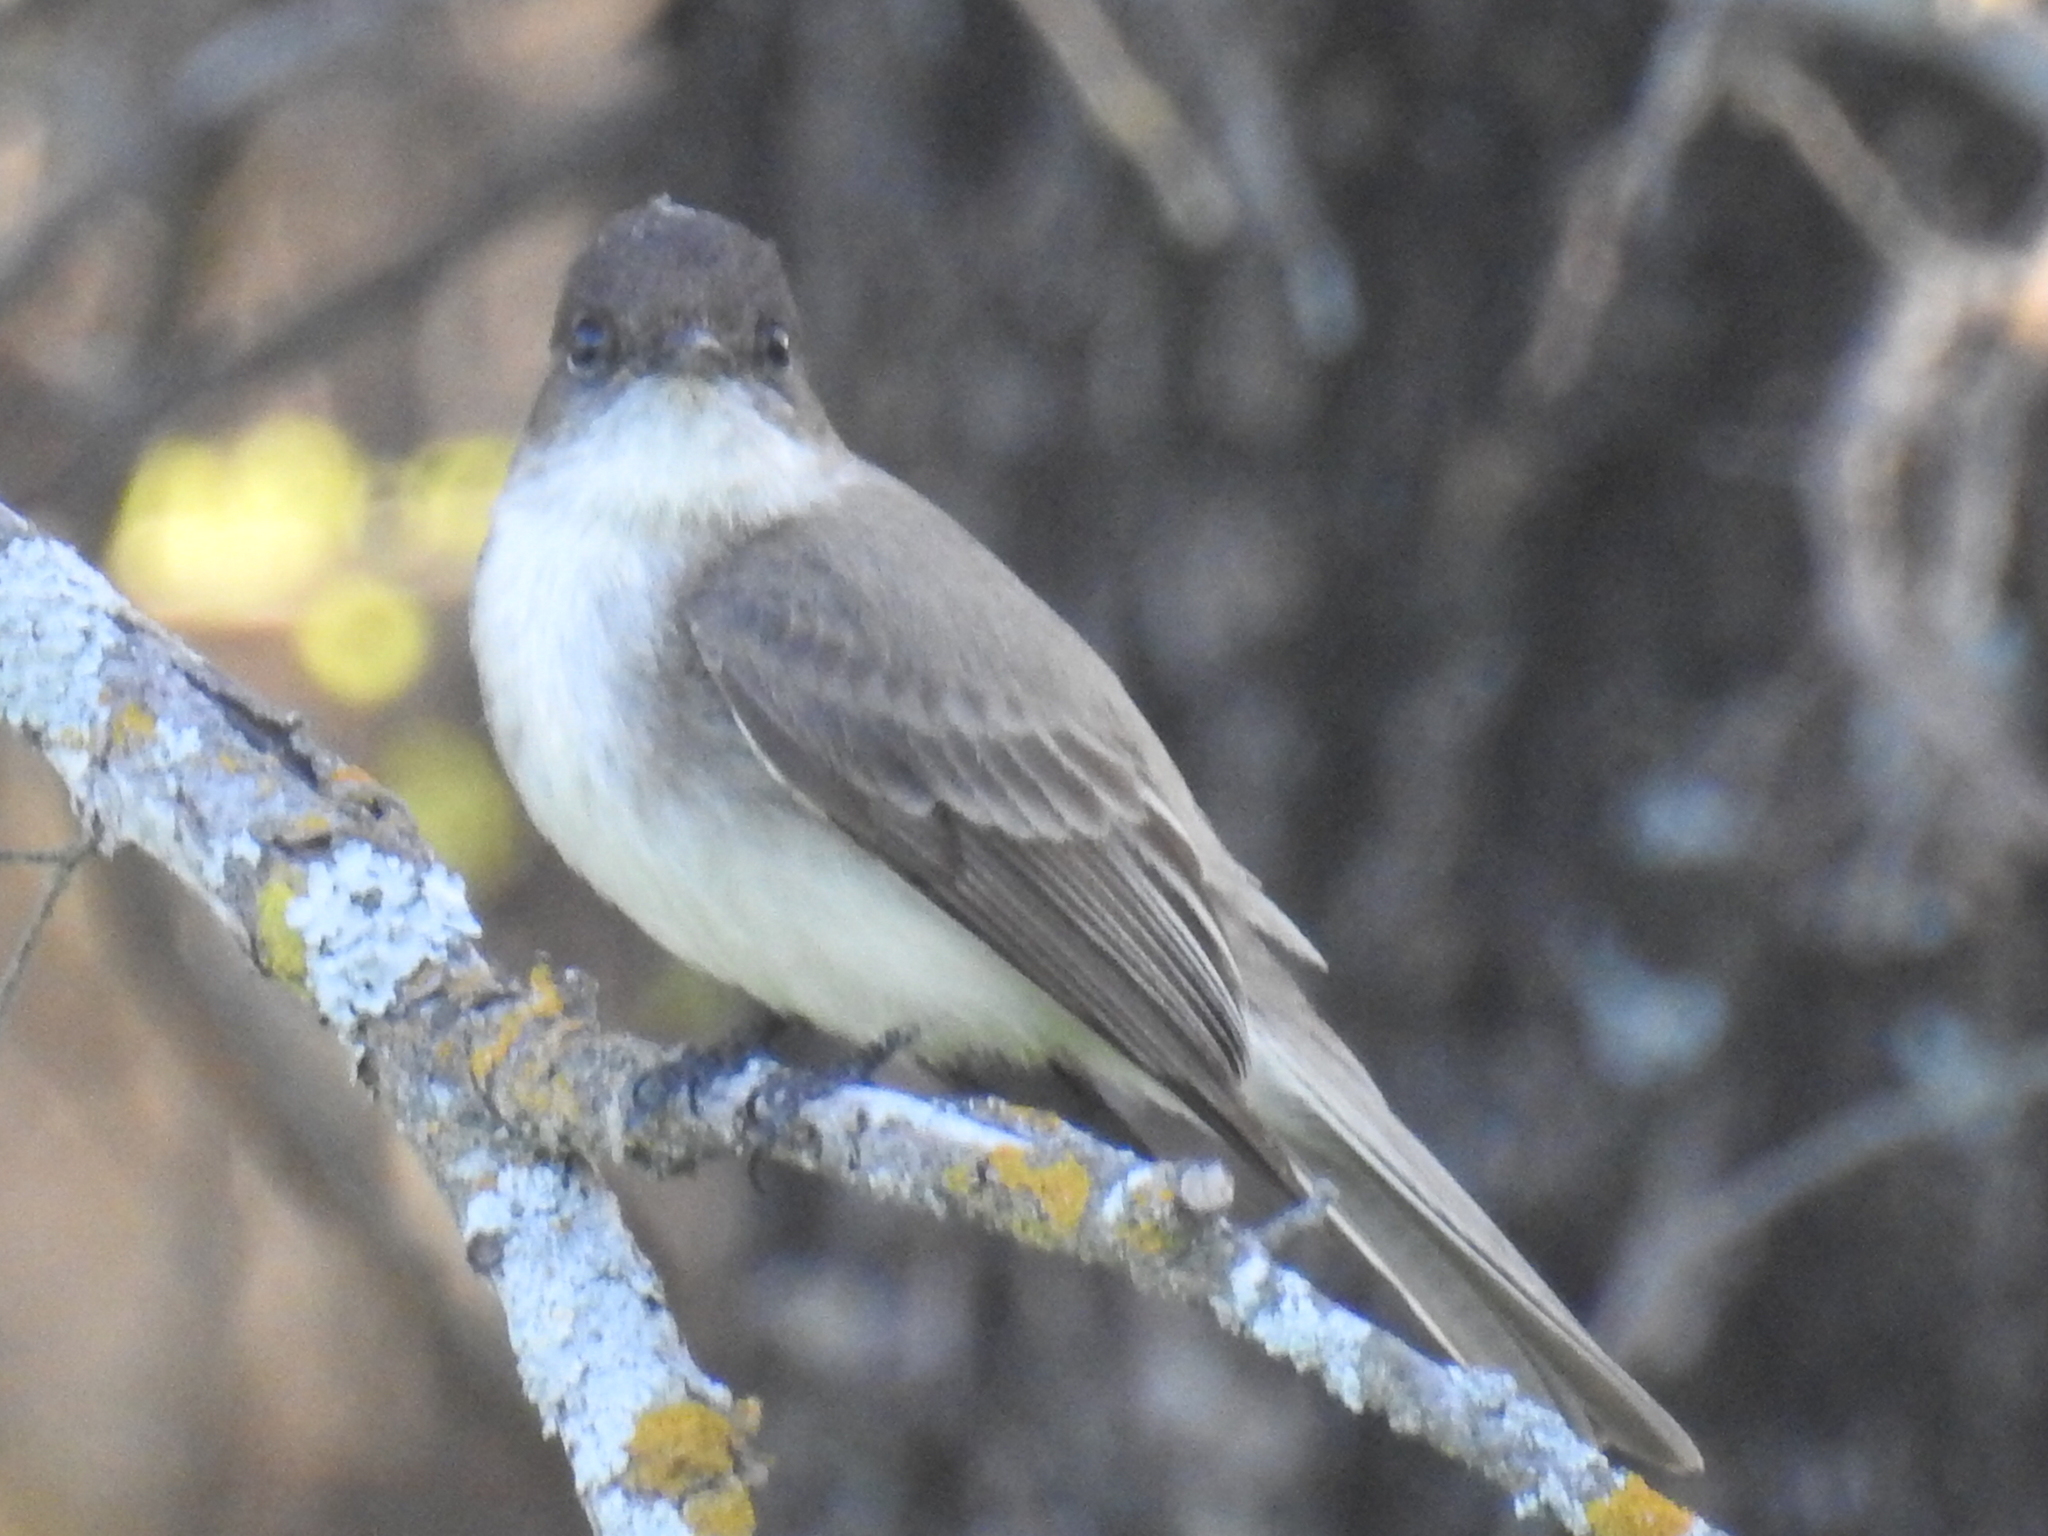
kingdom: Animalia
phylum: Chordata
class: Aves
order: Passeriformes
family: Tyrannidae
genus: Sayornis
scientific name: Sayornis phoebe
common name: Eastern phoebe
